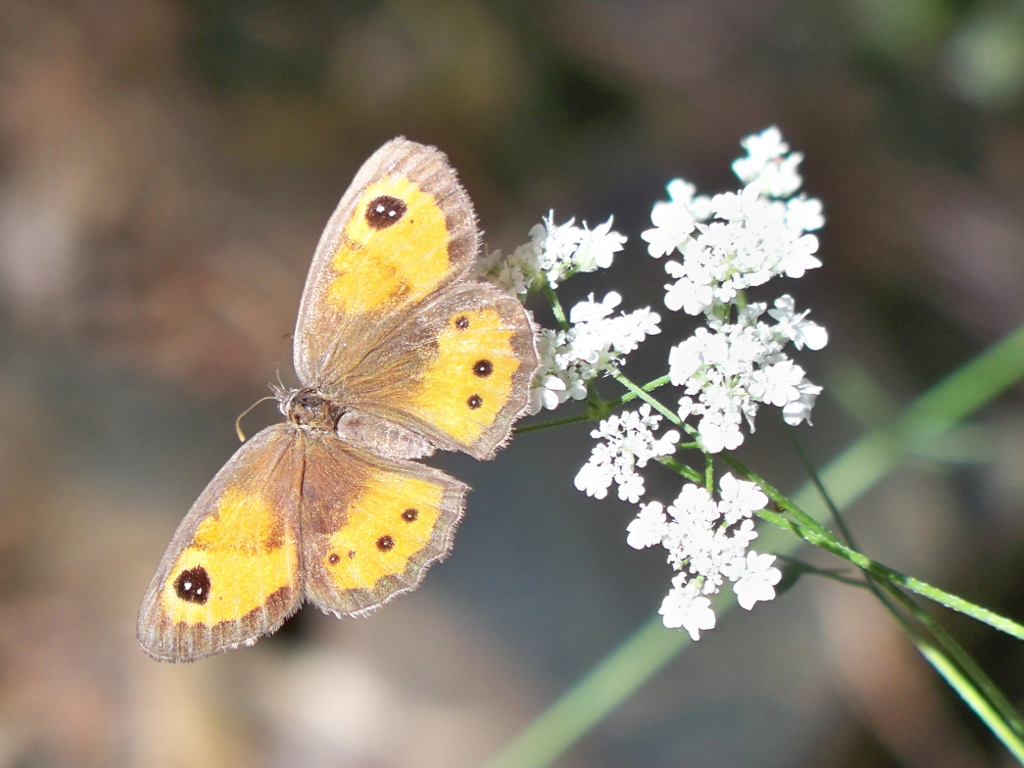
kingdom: Animalia
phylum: Arthropoda
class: Insecta
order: Lepidoptera
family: Nymphalidae
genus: Pyronia
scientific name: Pyronia bathseba
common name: Spanish gatekeeper
